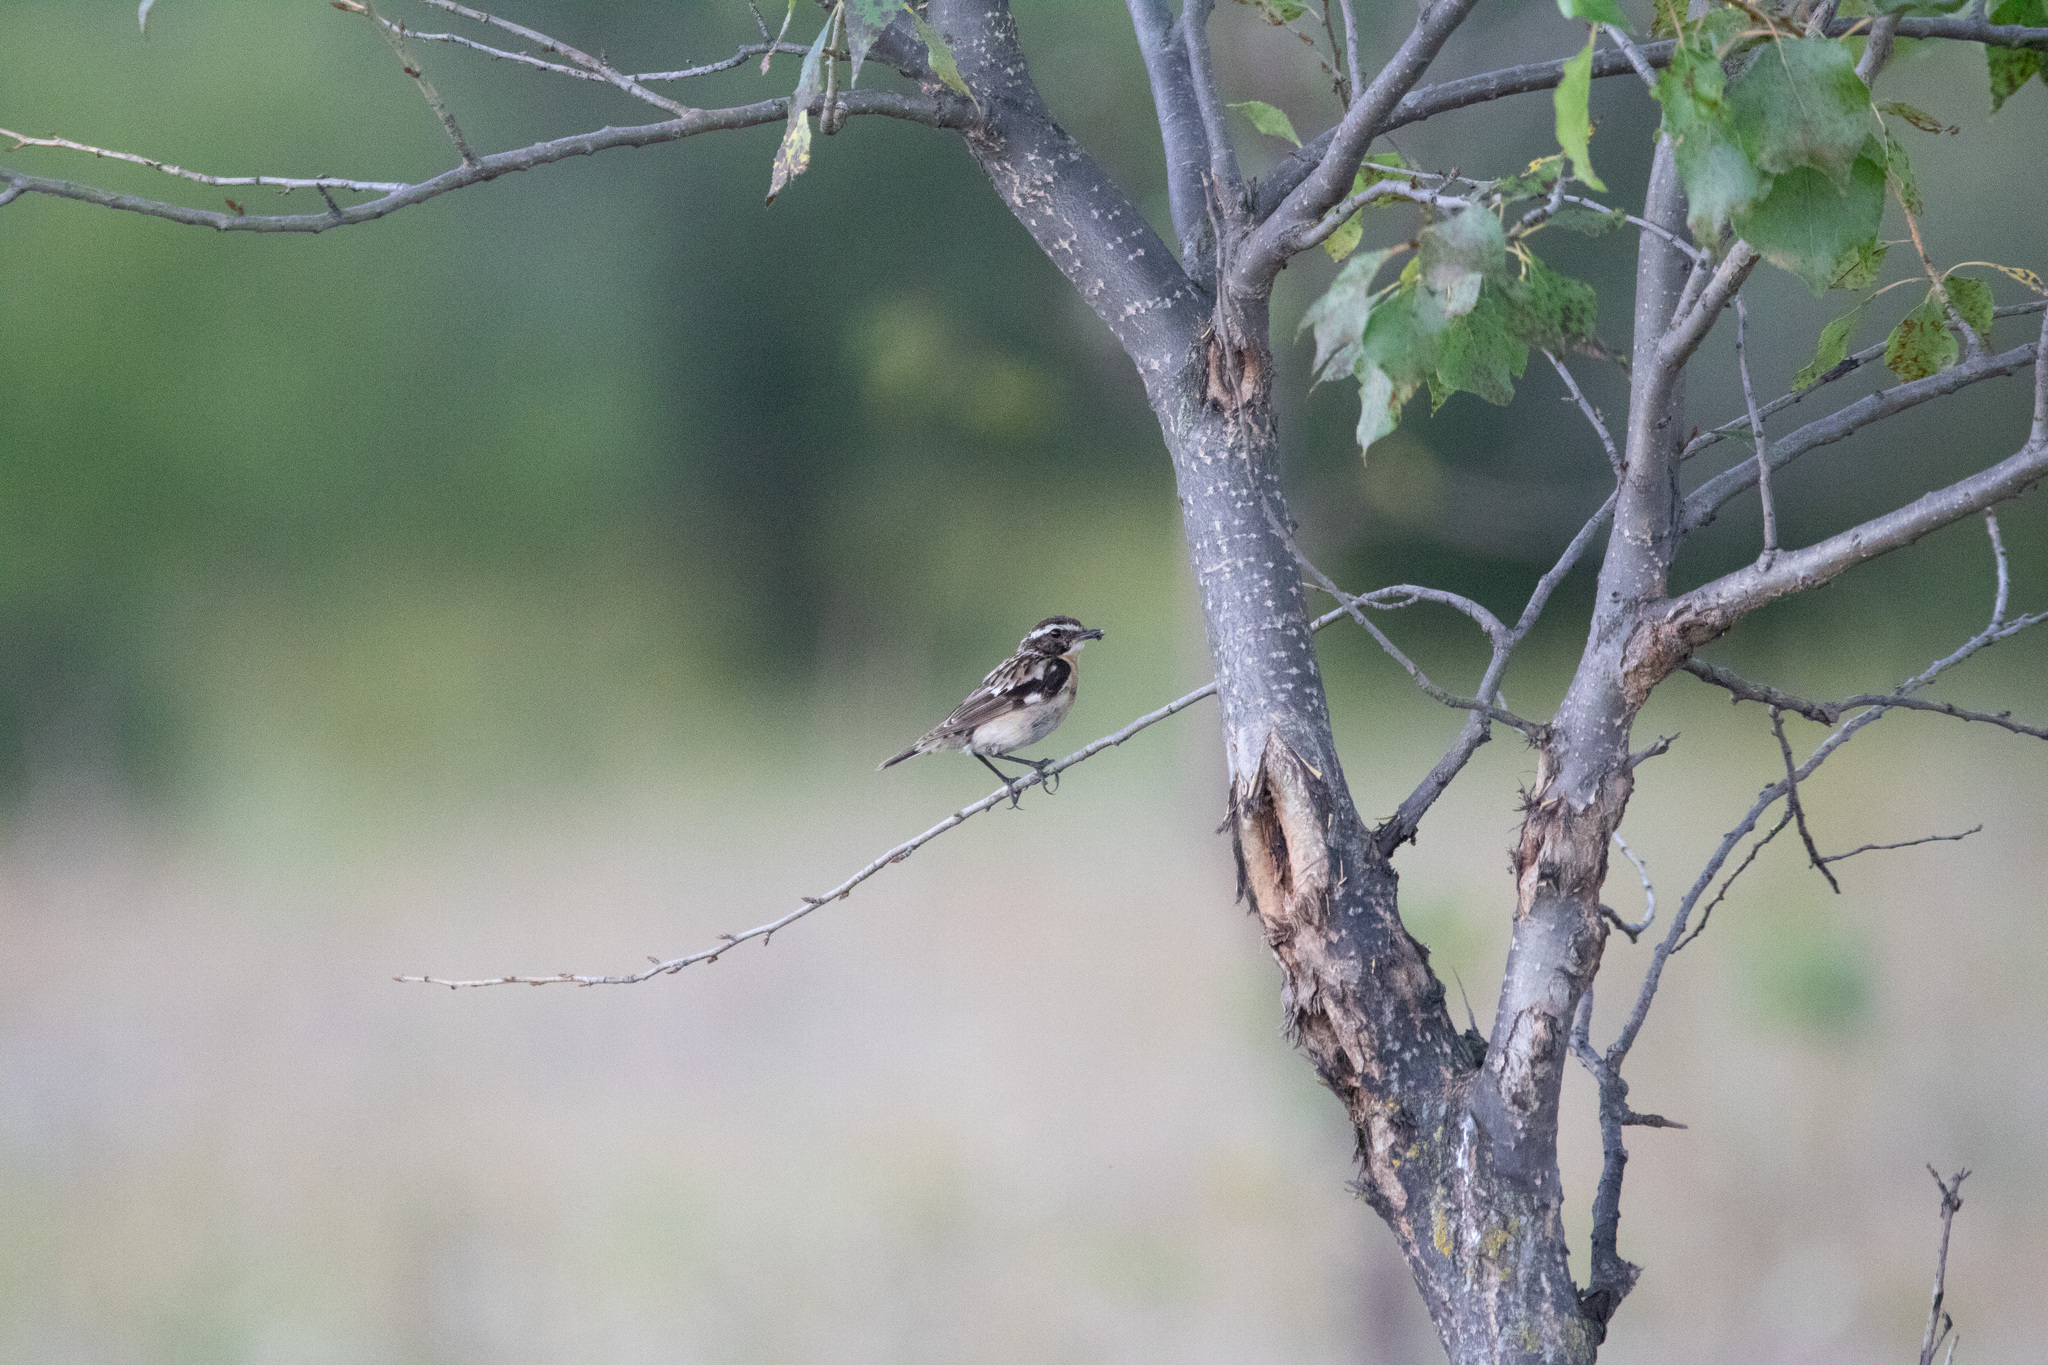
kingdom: Animalia
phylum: Chordata
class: Aves
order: Passeriformes
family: Muscicapidae
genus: Saxicola
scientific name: Saxicola rubetra
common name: Whinchat
